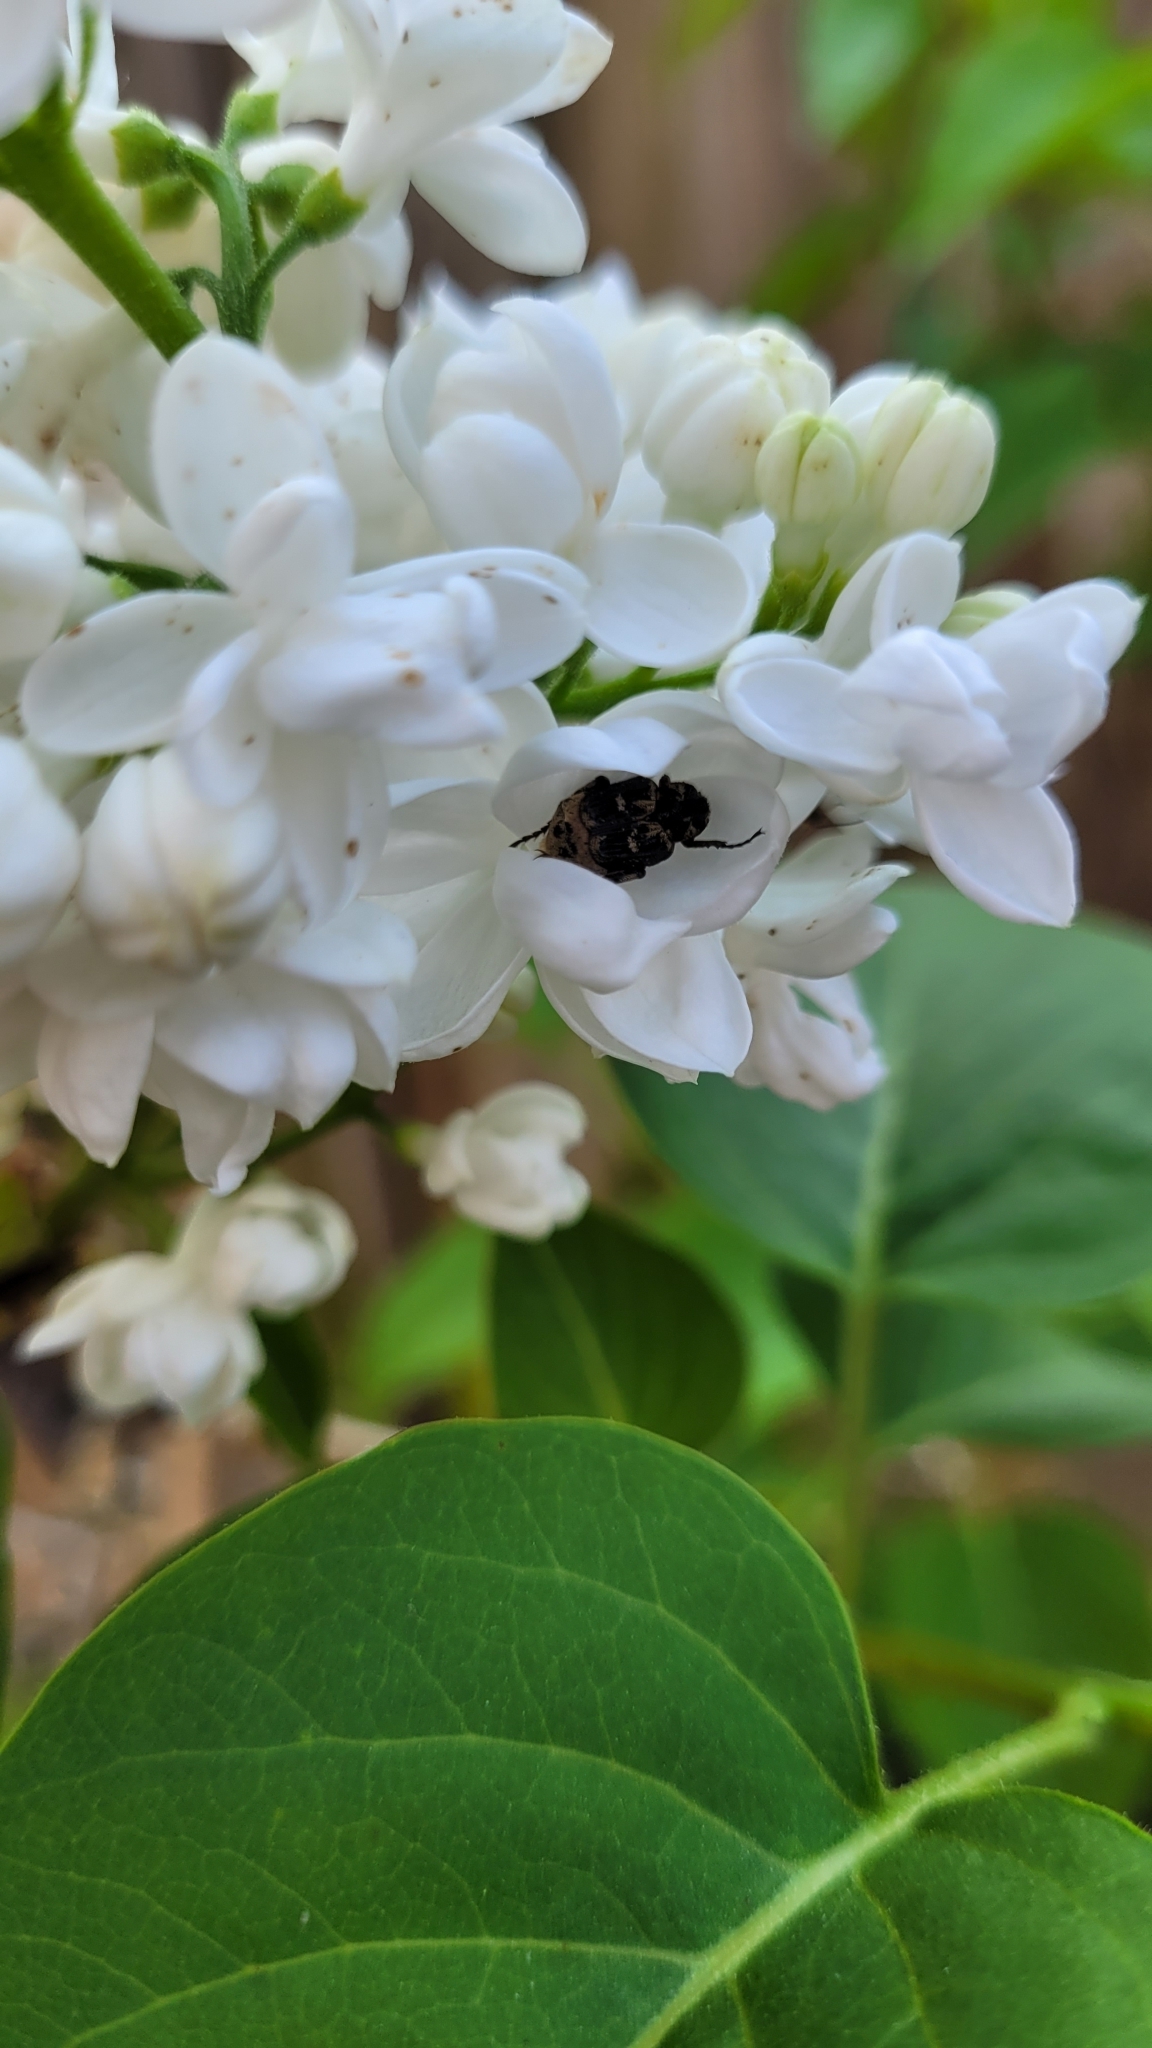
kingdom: Animalia
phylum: Arthropoda
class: Insecta
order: Coleoptera
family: Scarabaeidae
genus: Valgus
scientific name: Valgus hemipterus
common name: Bug flower chafer
